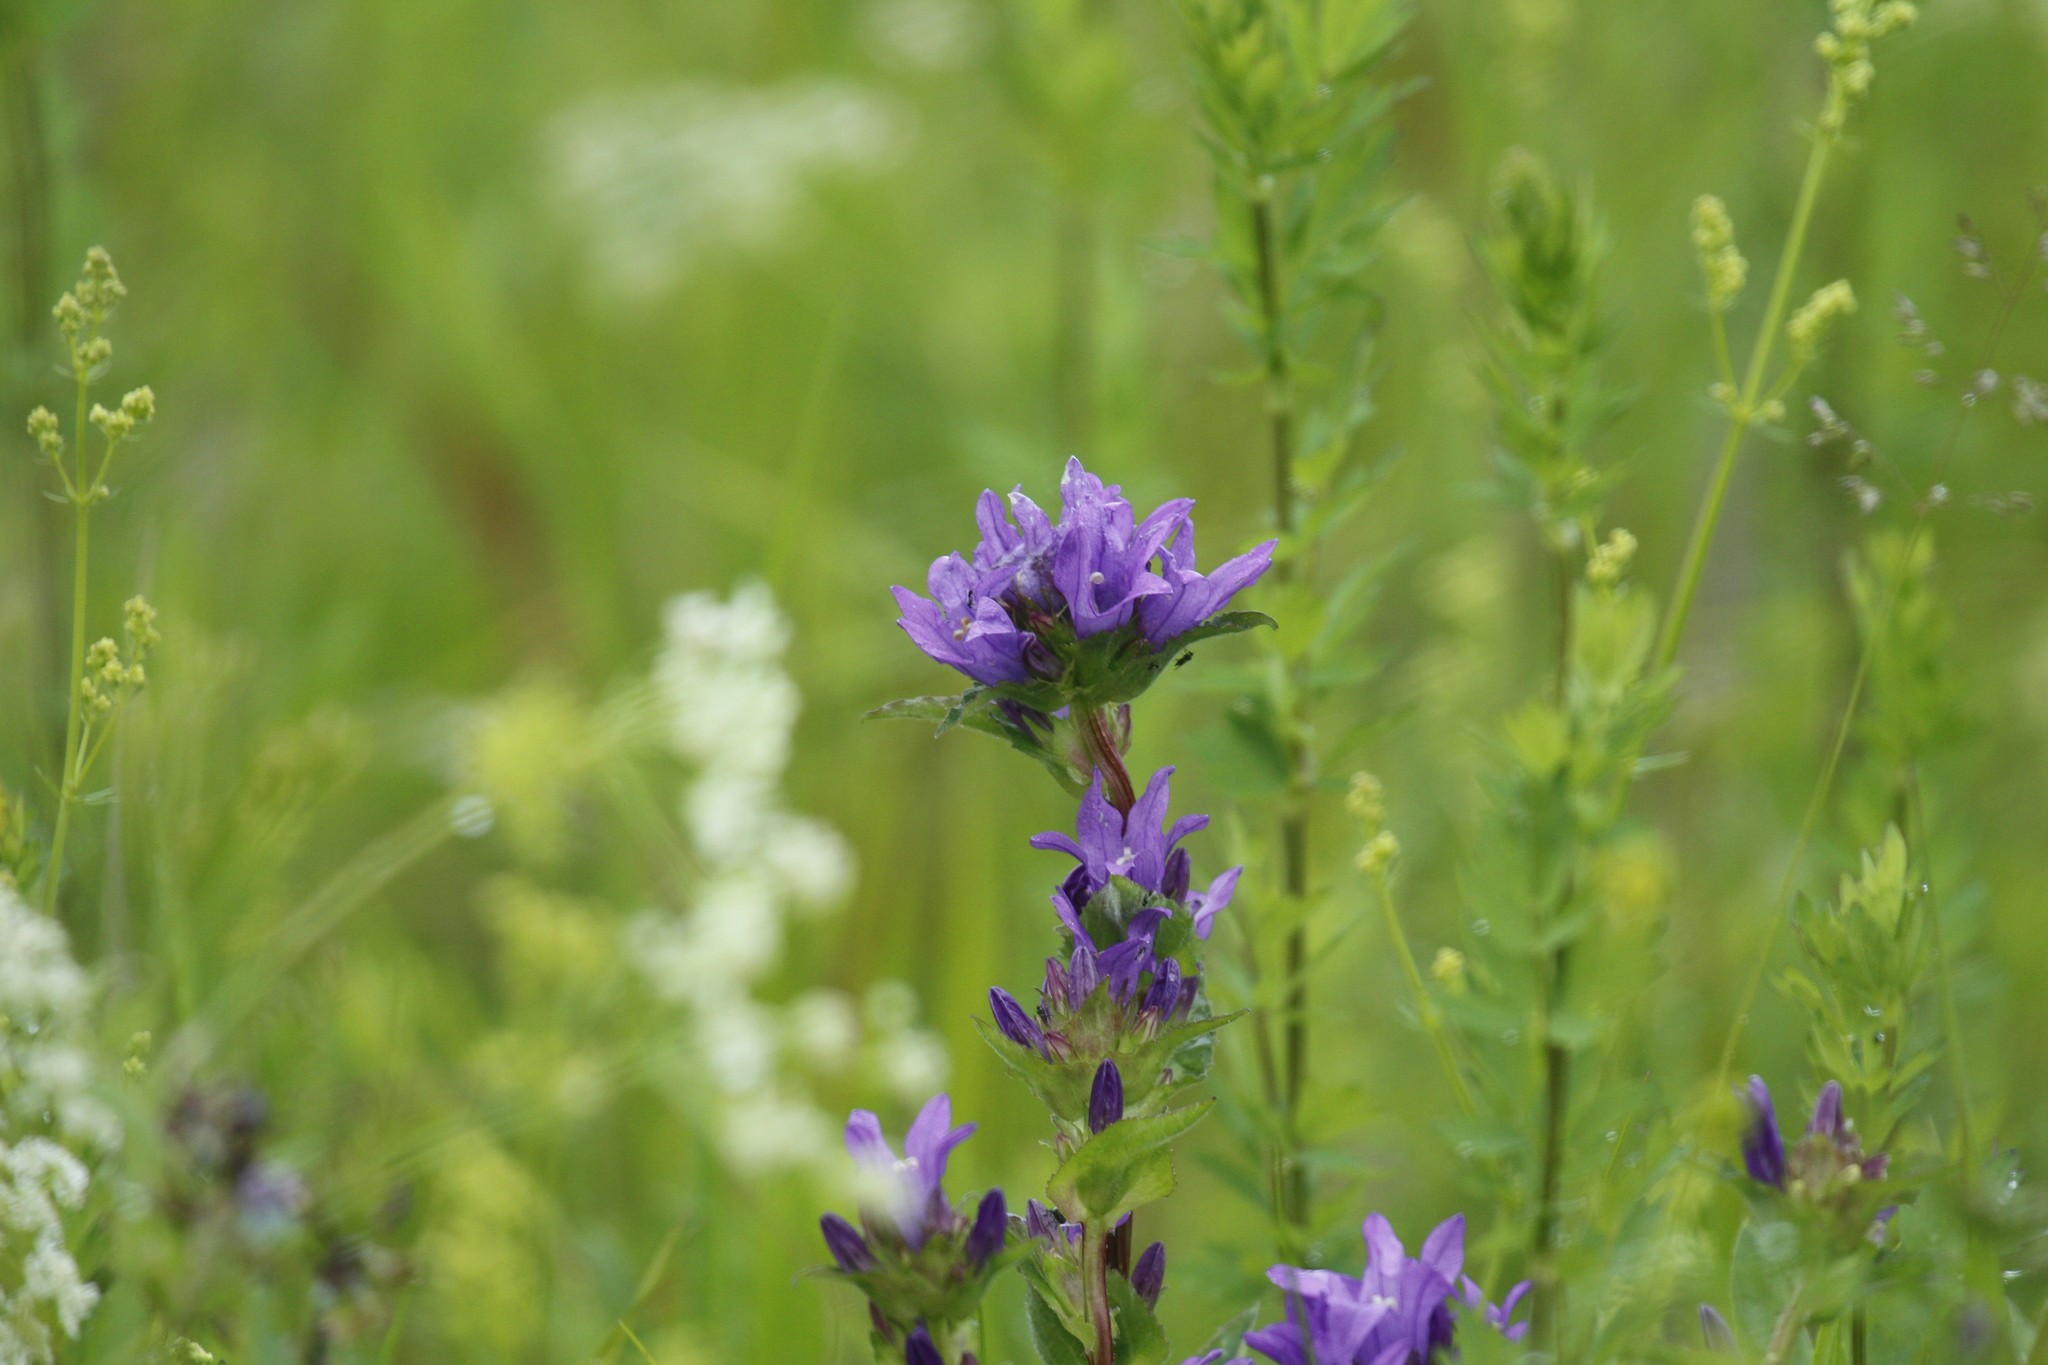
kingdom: Plantae
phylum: Tracheophyta
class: Magnoliopsida
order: Asterales
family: Campanulaceae
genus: Campanula
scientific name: Campanula glomerata
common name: Clustered bellflower
